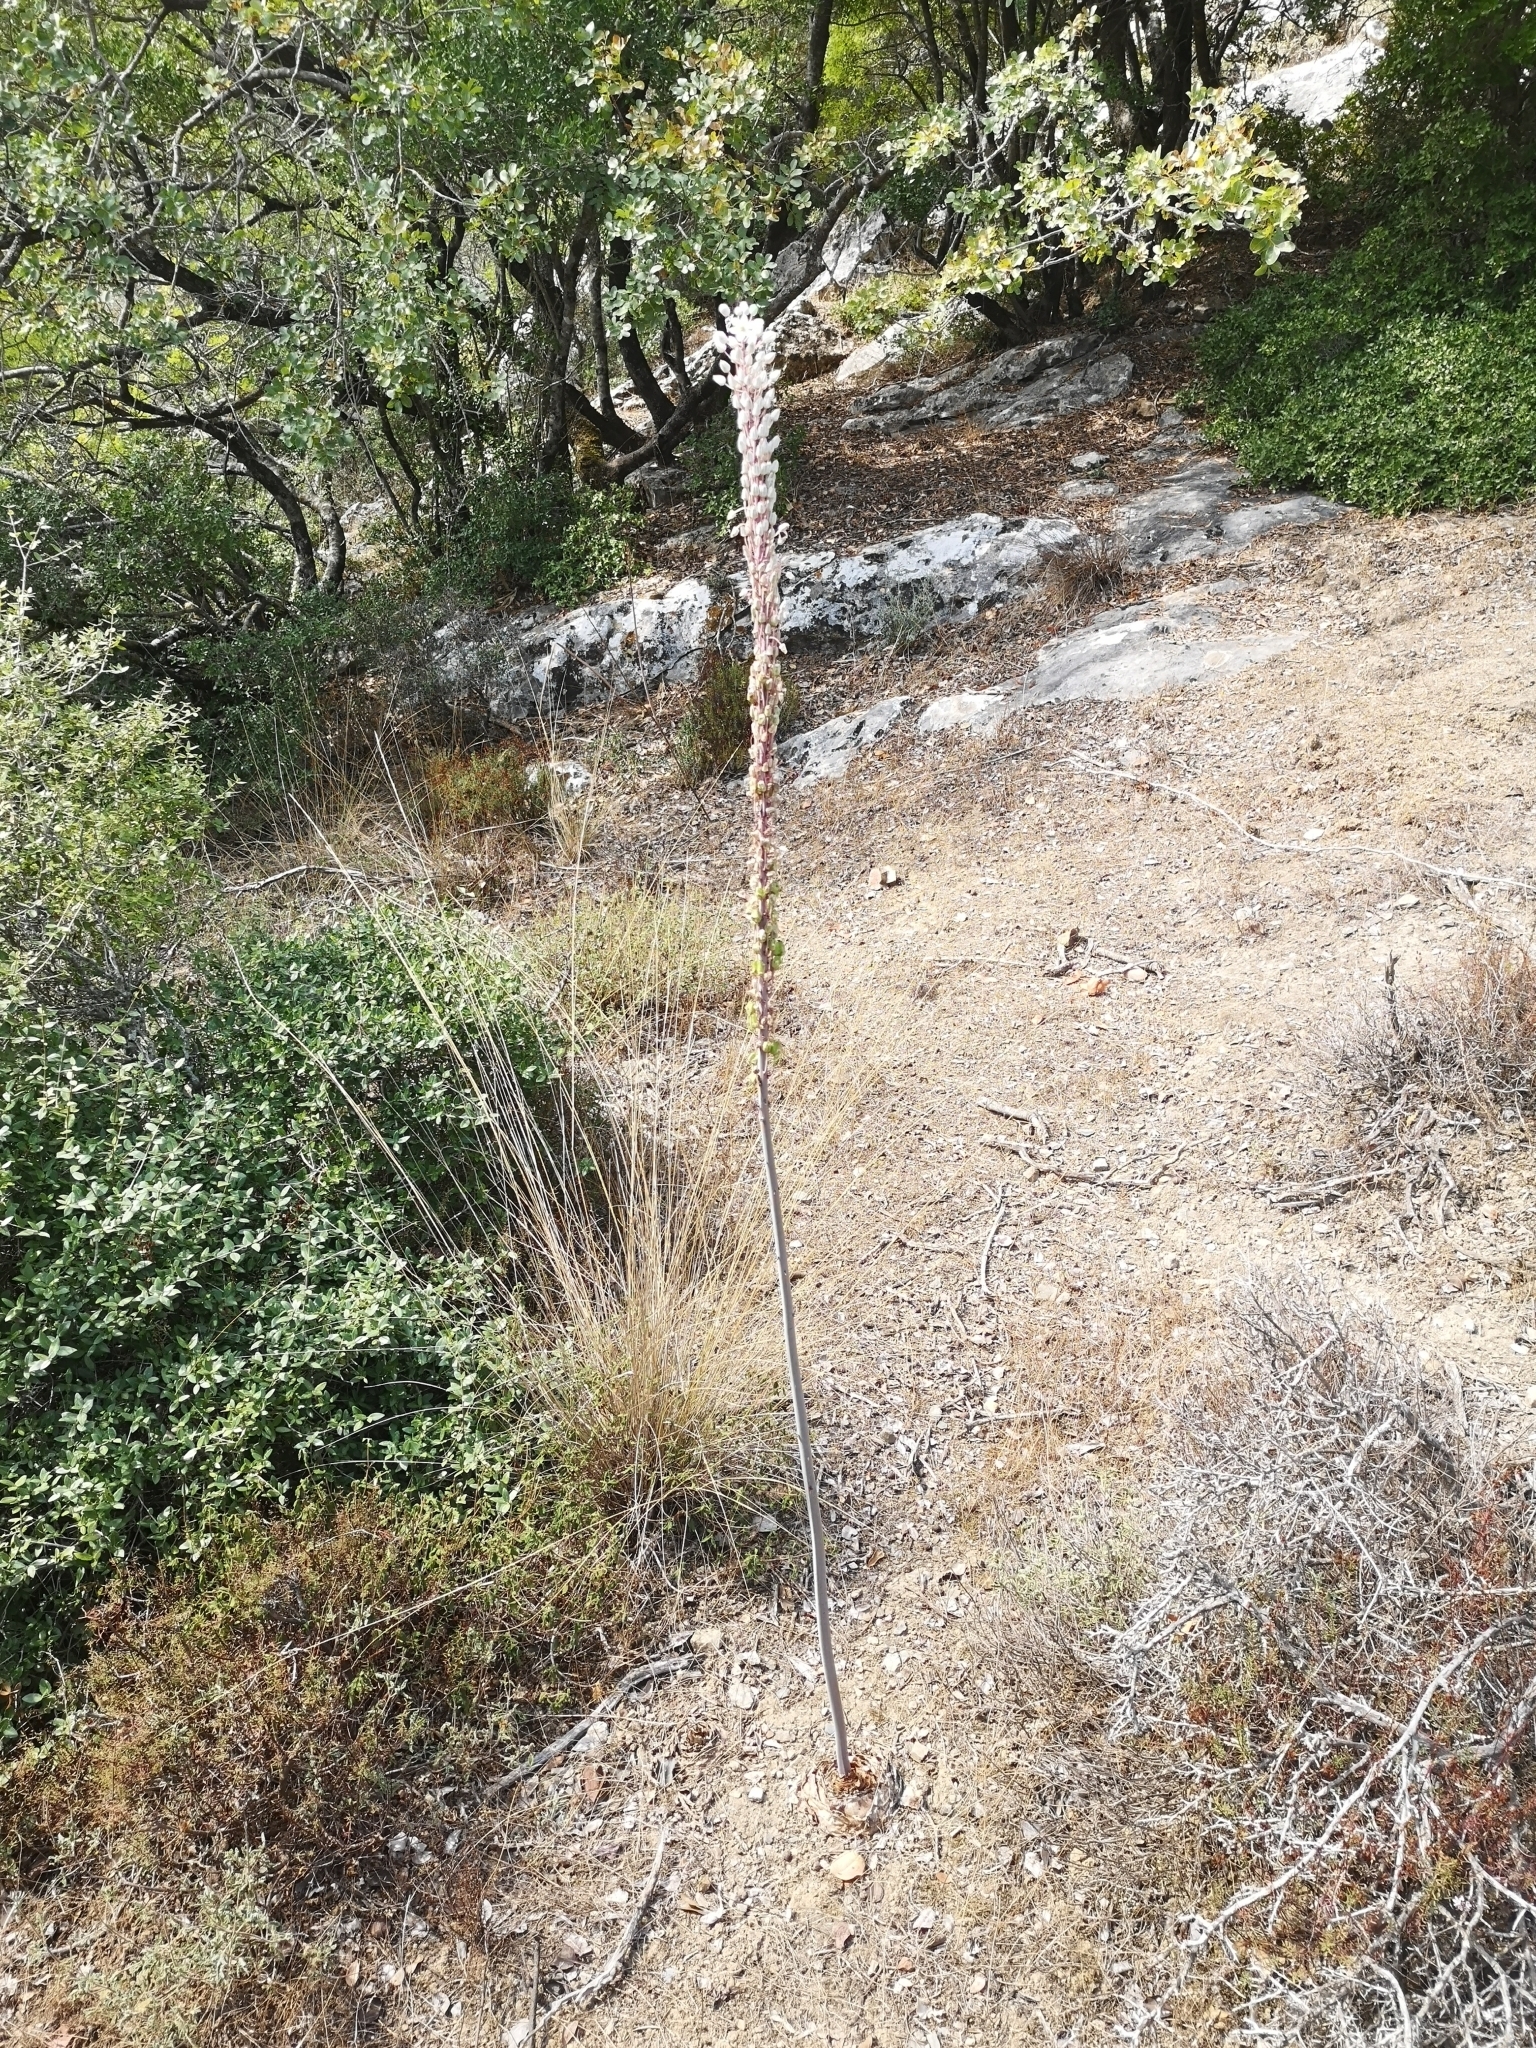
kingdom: Plantae
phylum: Tracheophyta
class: Liliopsida
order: Asparagales
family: Asparagaceae
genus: Drimia
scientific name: Drimia numidica
